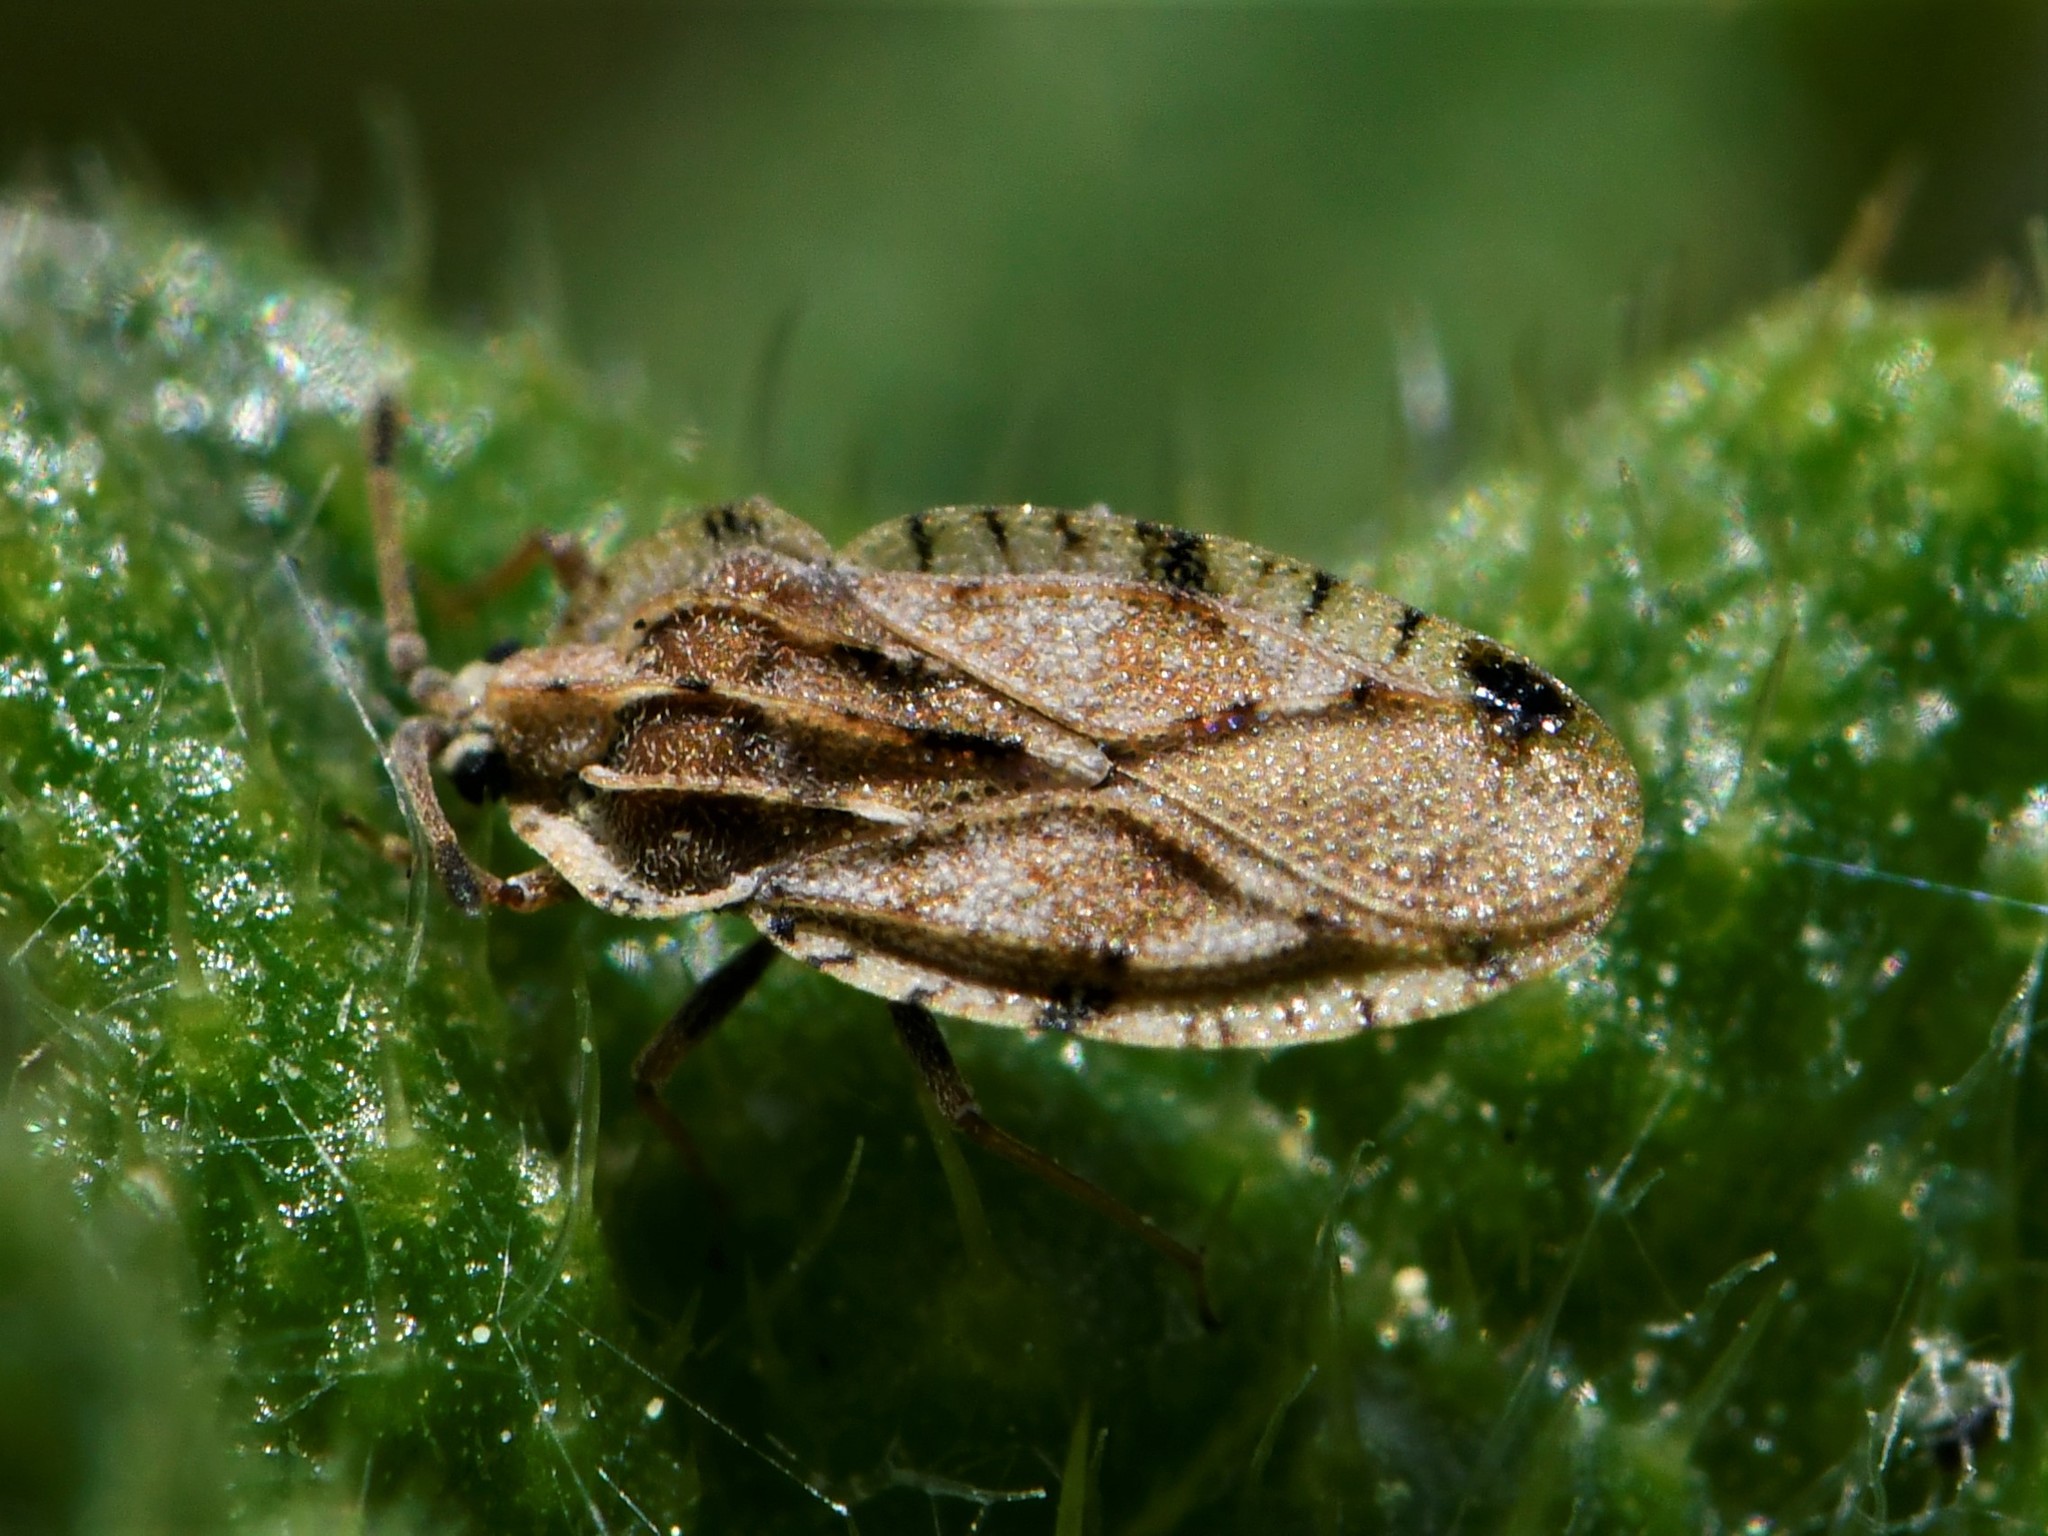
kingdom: Animalia
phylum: Arthropoda
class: Insecta
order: Hemiptera
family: Tingidae
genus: Tingis
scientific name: Tingis cardui
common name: Spear thistle lacebug
